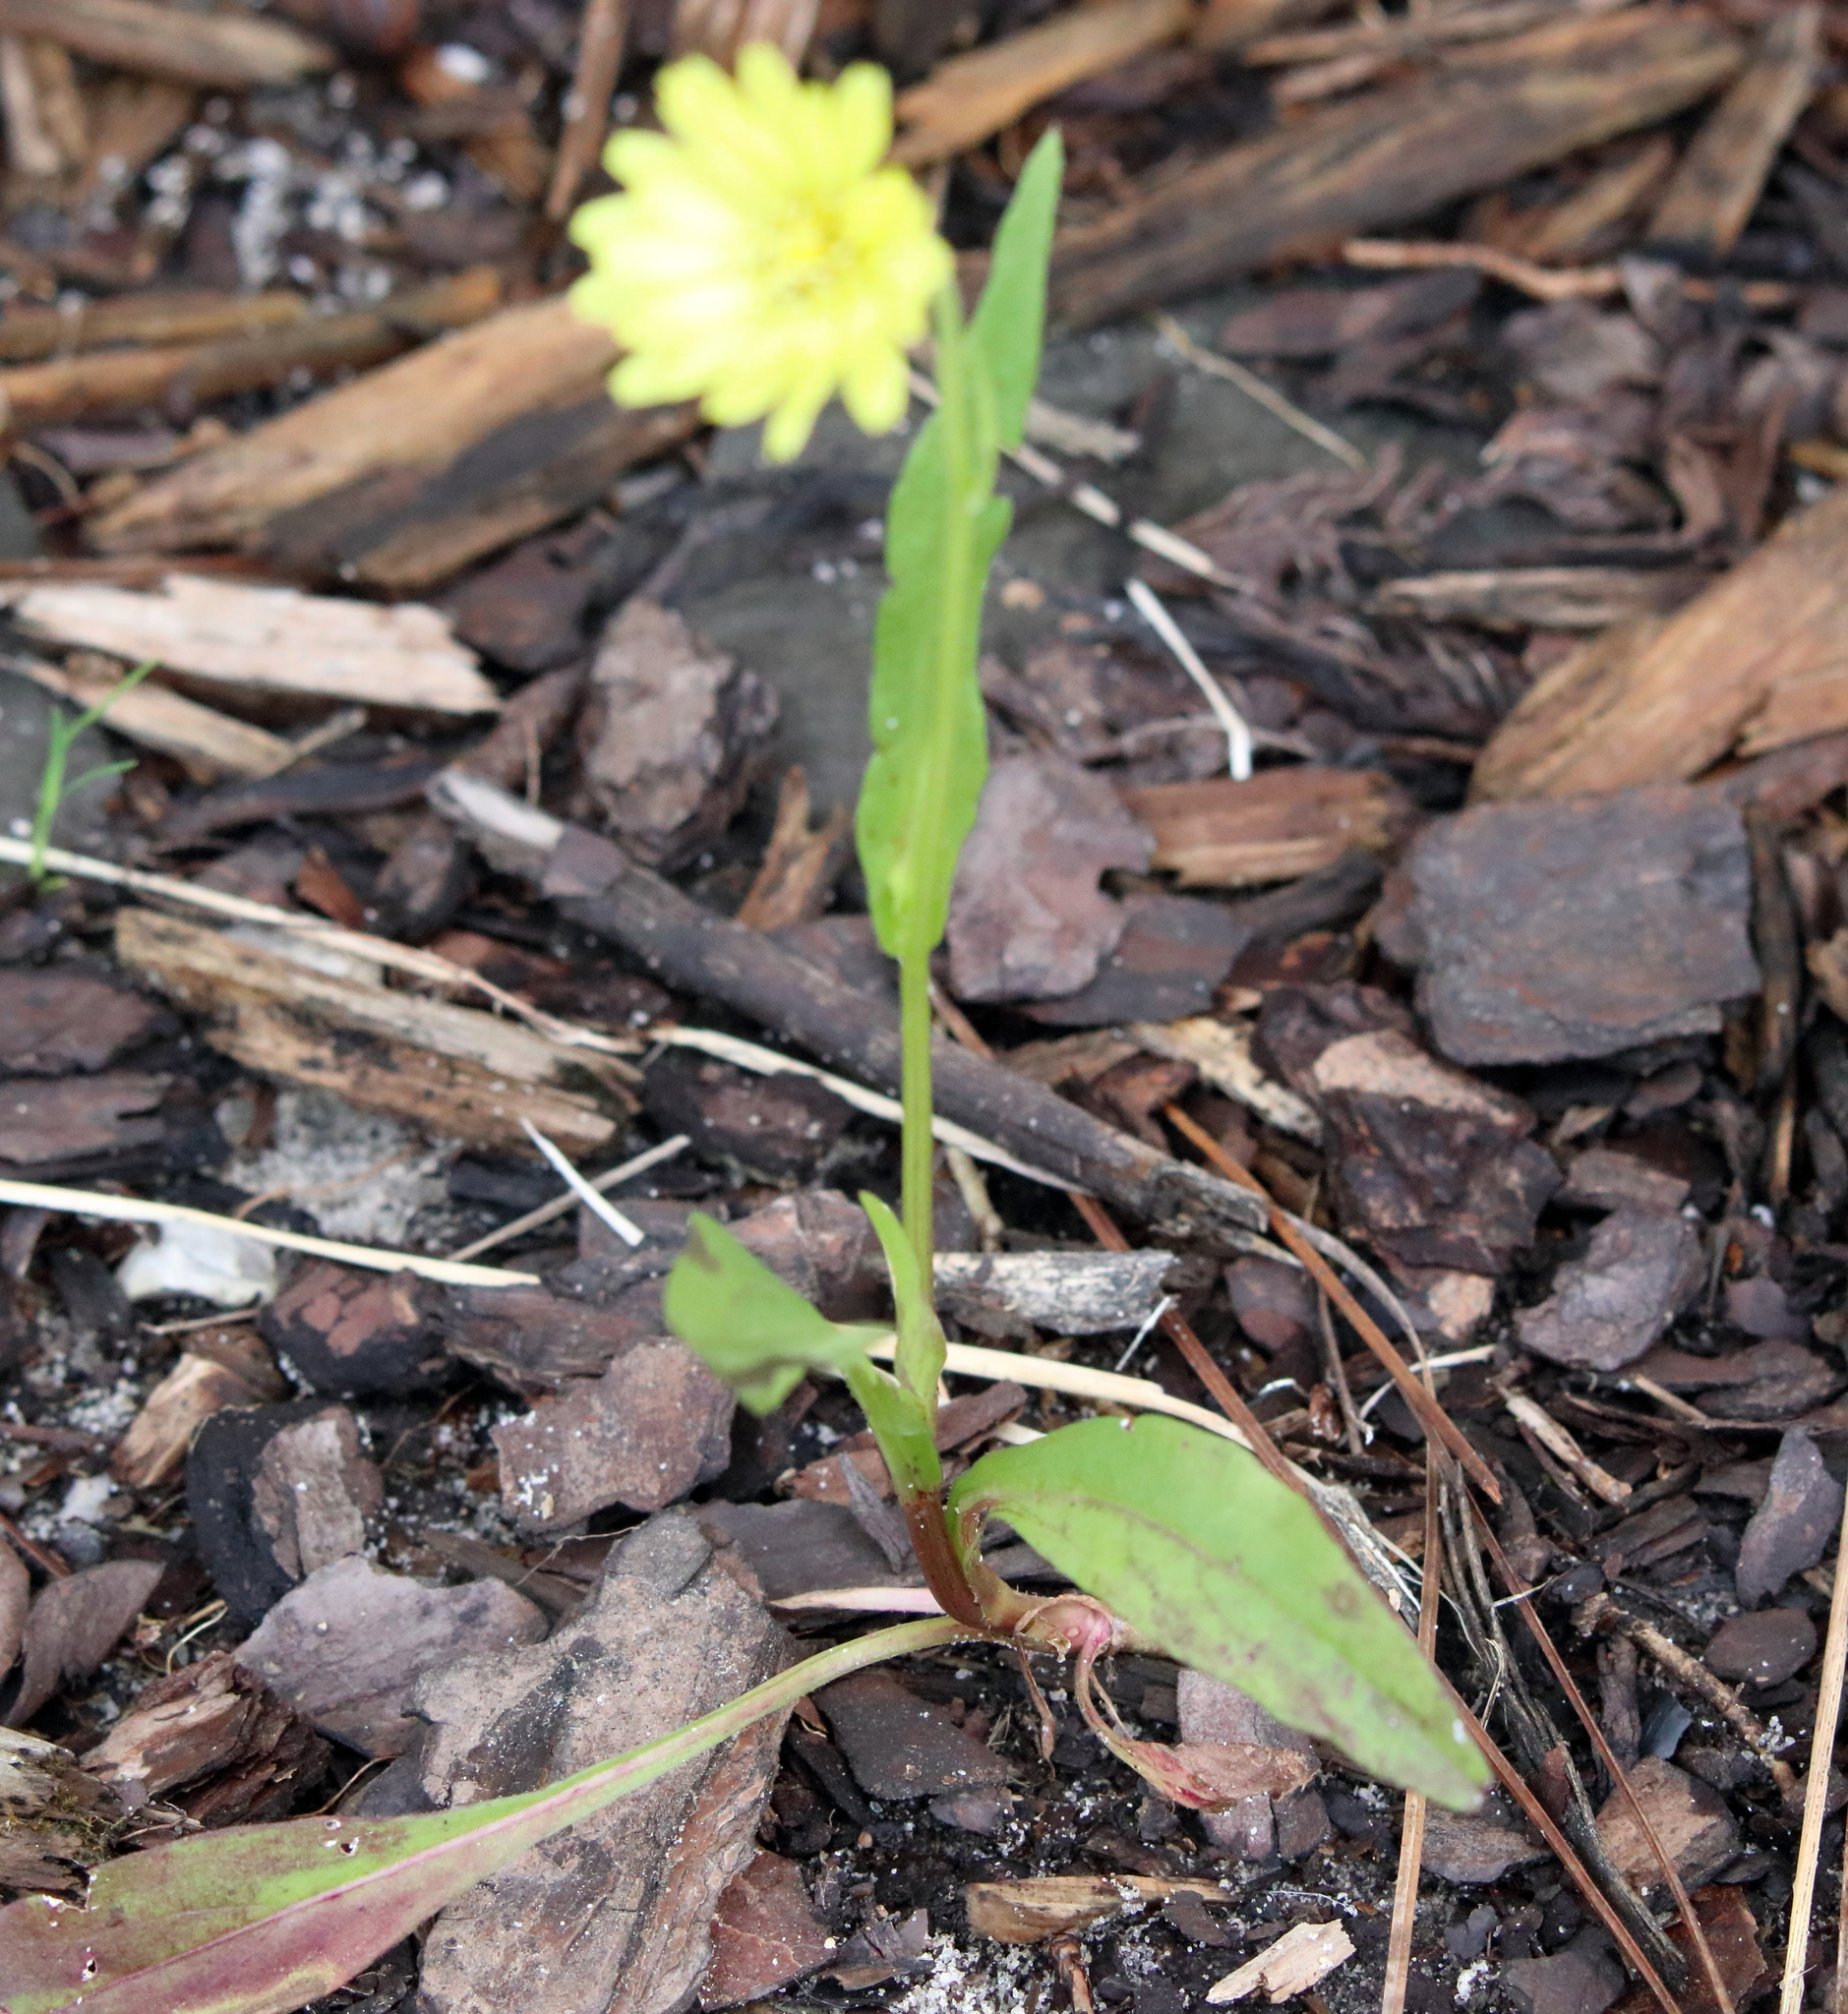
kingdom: Plantae
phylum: Tracheophyta
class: Magnoliopsida
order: Asterales
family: Asteraceae
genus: Pyrrhopappus
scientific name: Pyrrhopappus carolinianus
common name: Carolina desert-chicory
